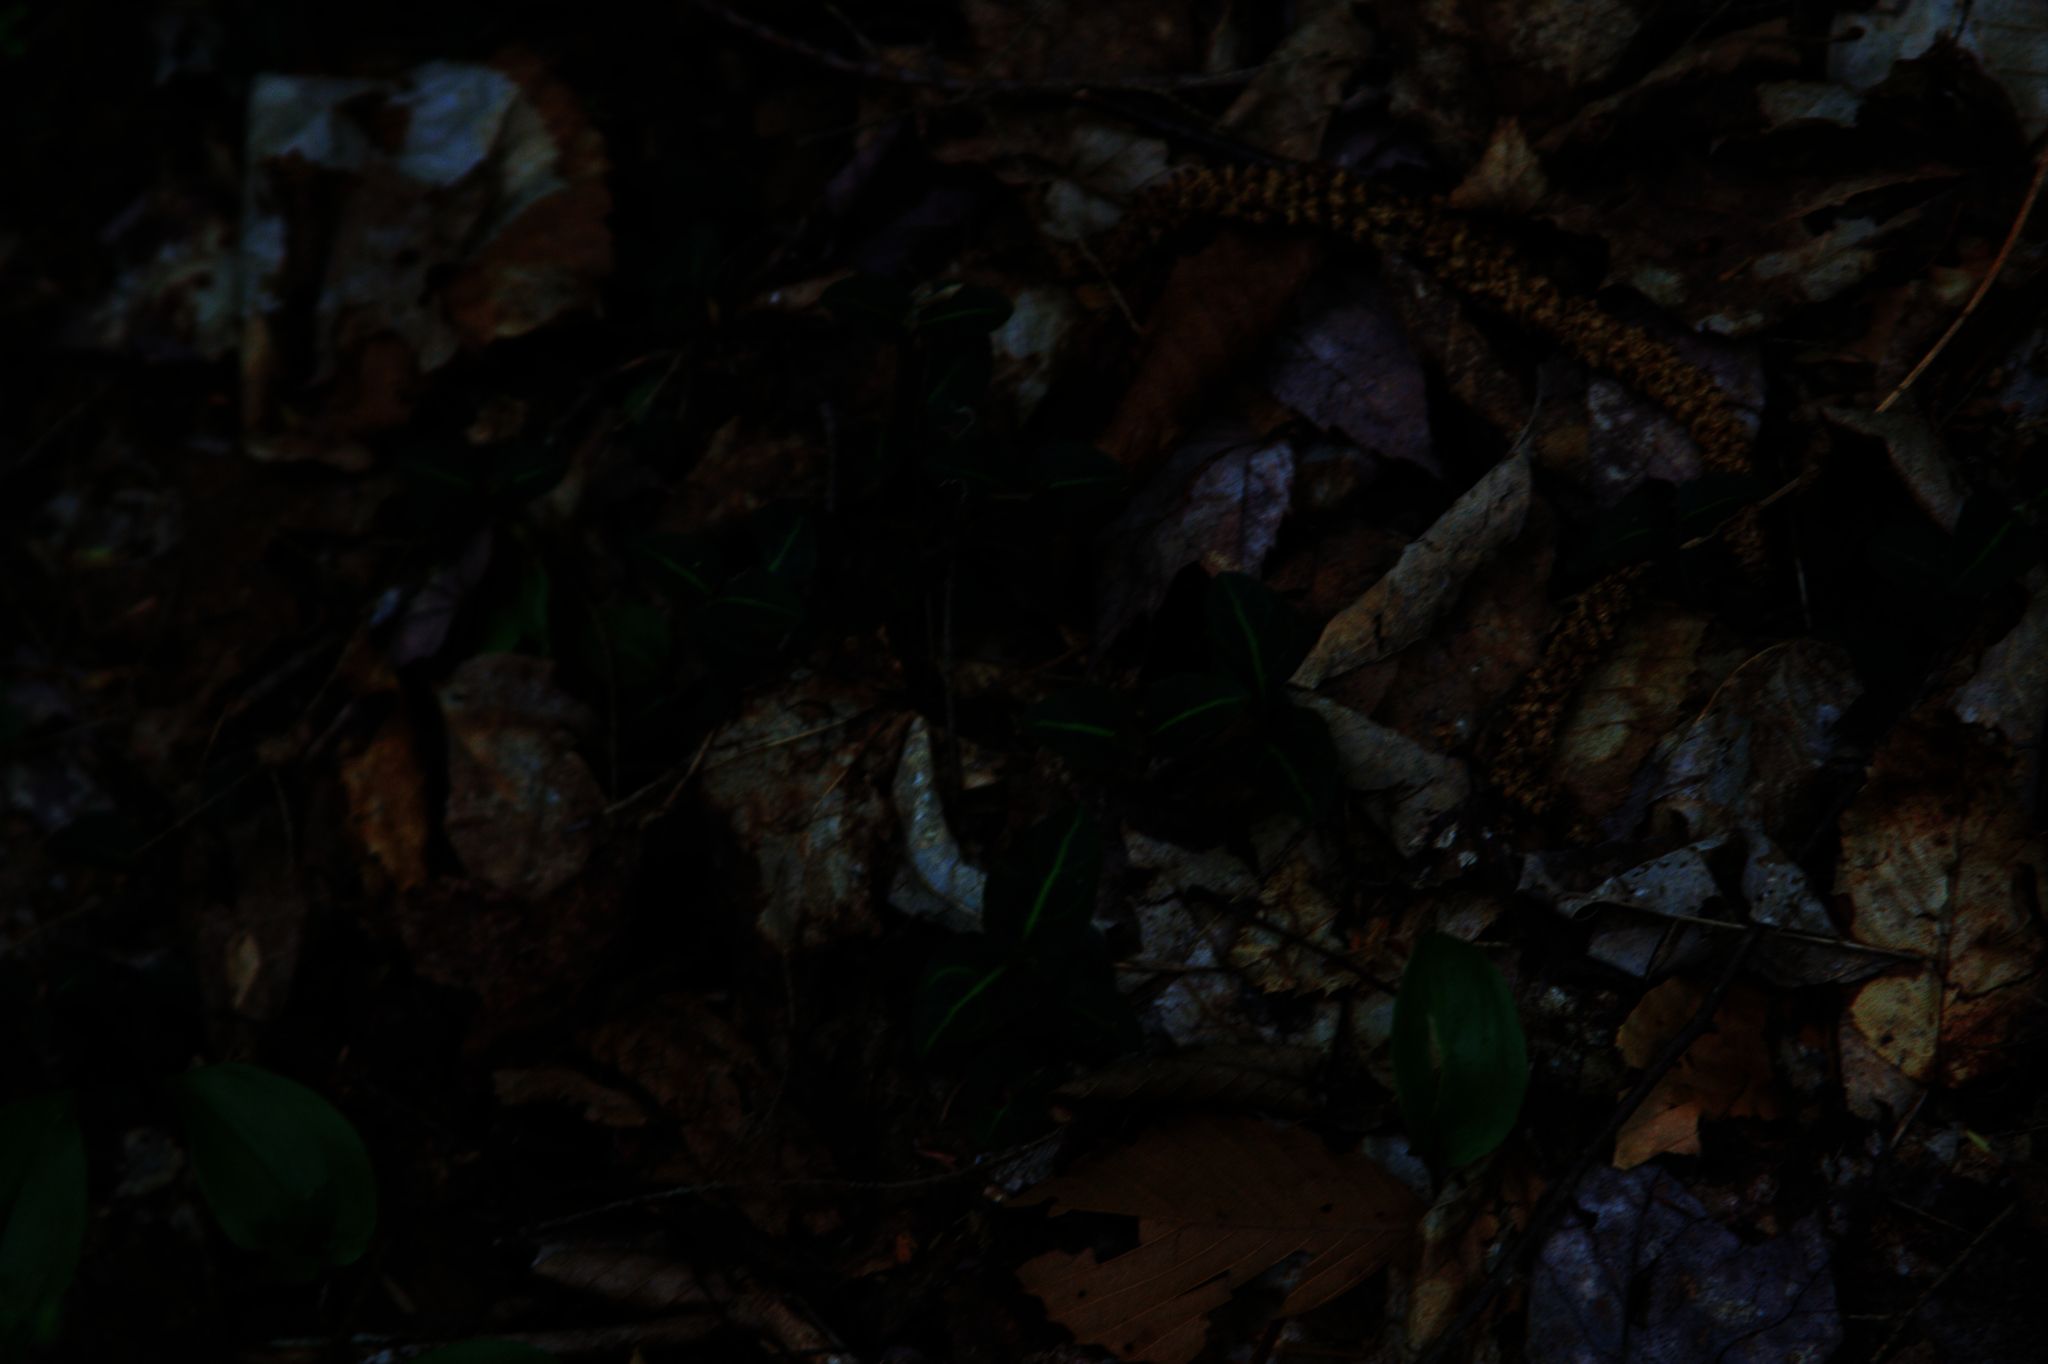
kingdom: Plantae
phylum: Tracheophyta
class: Magnoliopsida
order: Gentianales
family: Rubiaceae
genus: Mitchella
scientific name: Mitchella repens
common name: Partridge-berry
